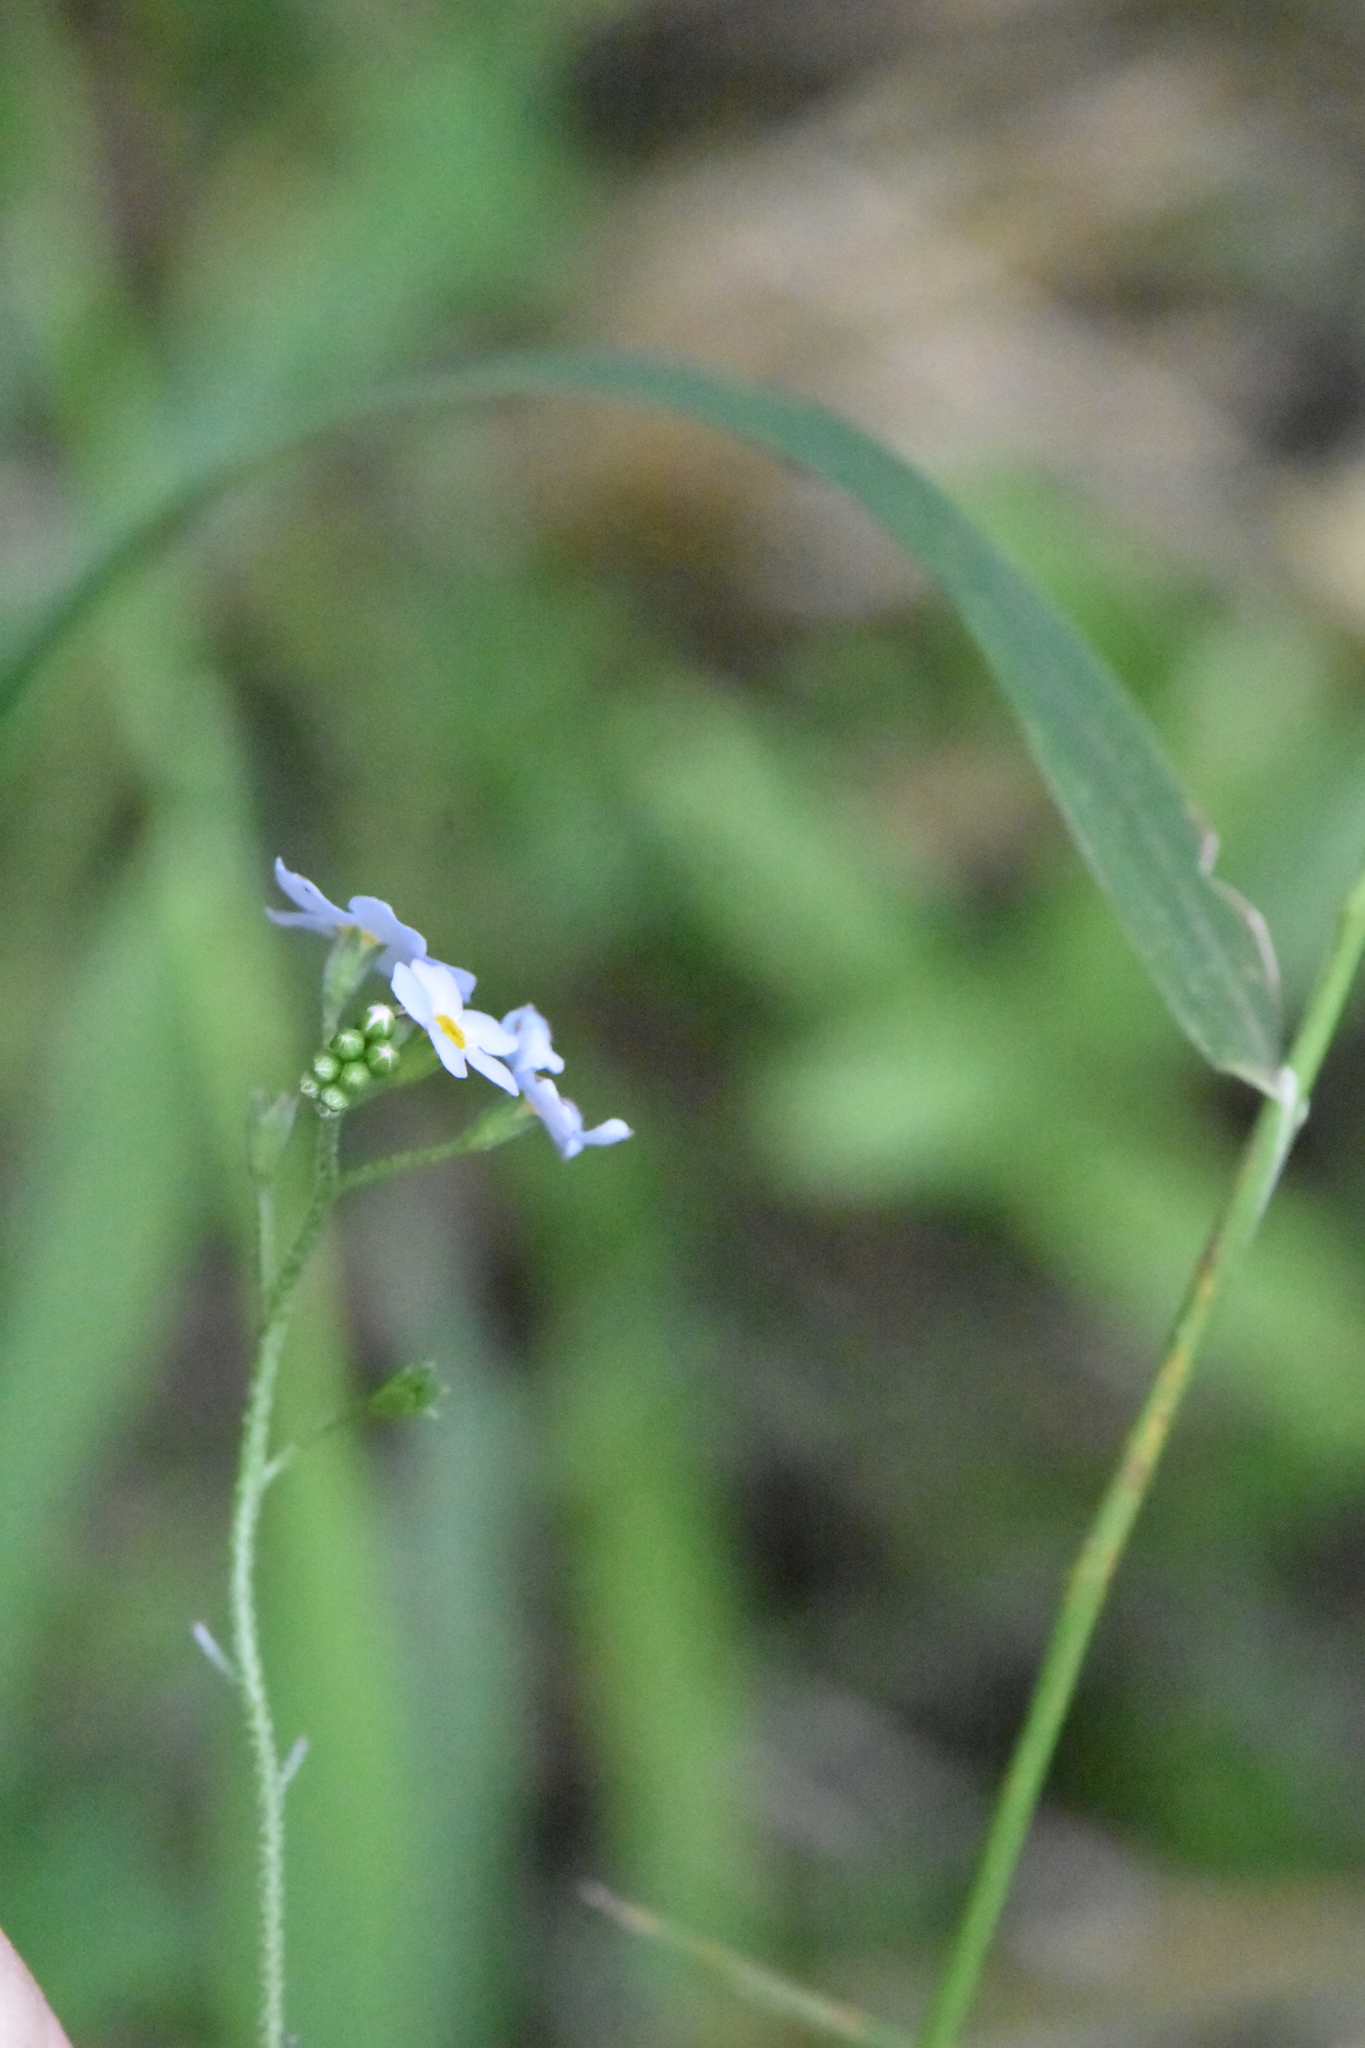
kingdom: Plantae
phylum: Tracheophyta
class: Magnoliopsida
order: Boraginales
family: Boraginaceae
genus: Myosotis
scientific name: Myosotis scorpioides
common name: Water forget-me-not
